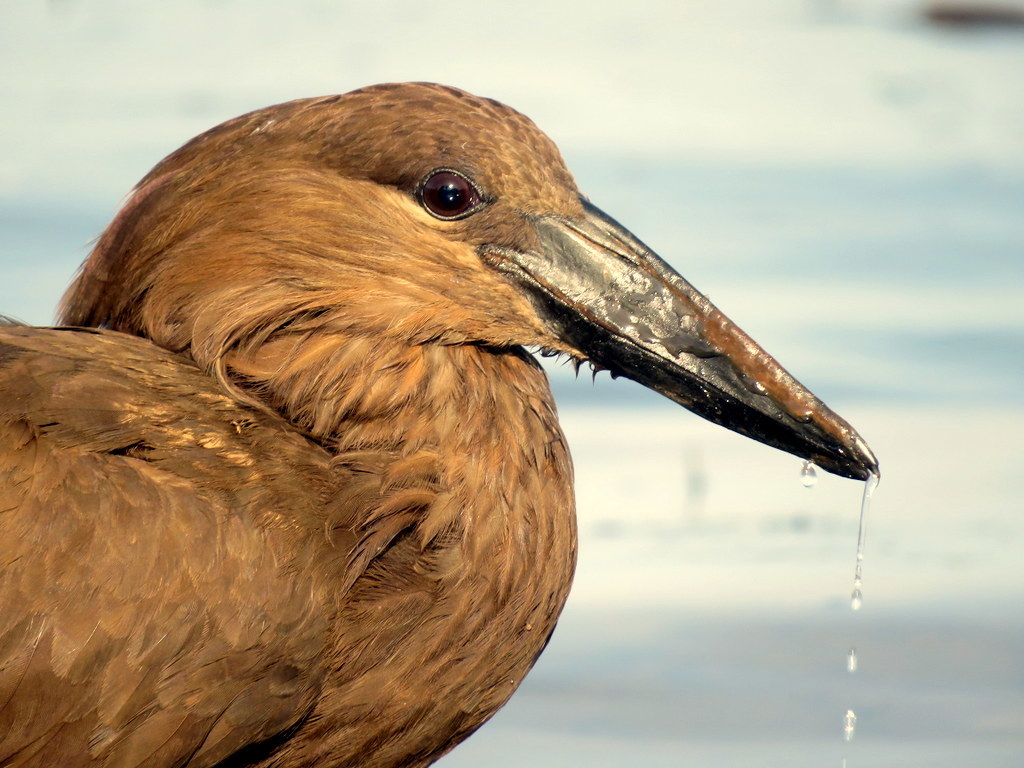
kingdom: Animalia
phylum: Chordata
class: Aves
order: Pelecaniformes
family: Scopidae
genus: Scopus
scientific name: Scopus umbretta
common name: Hamerkop
